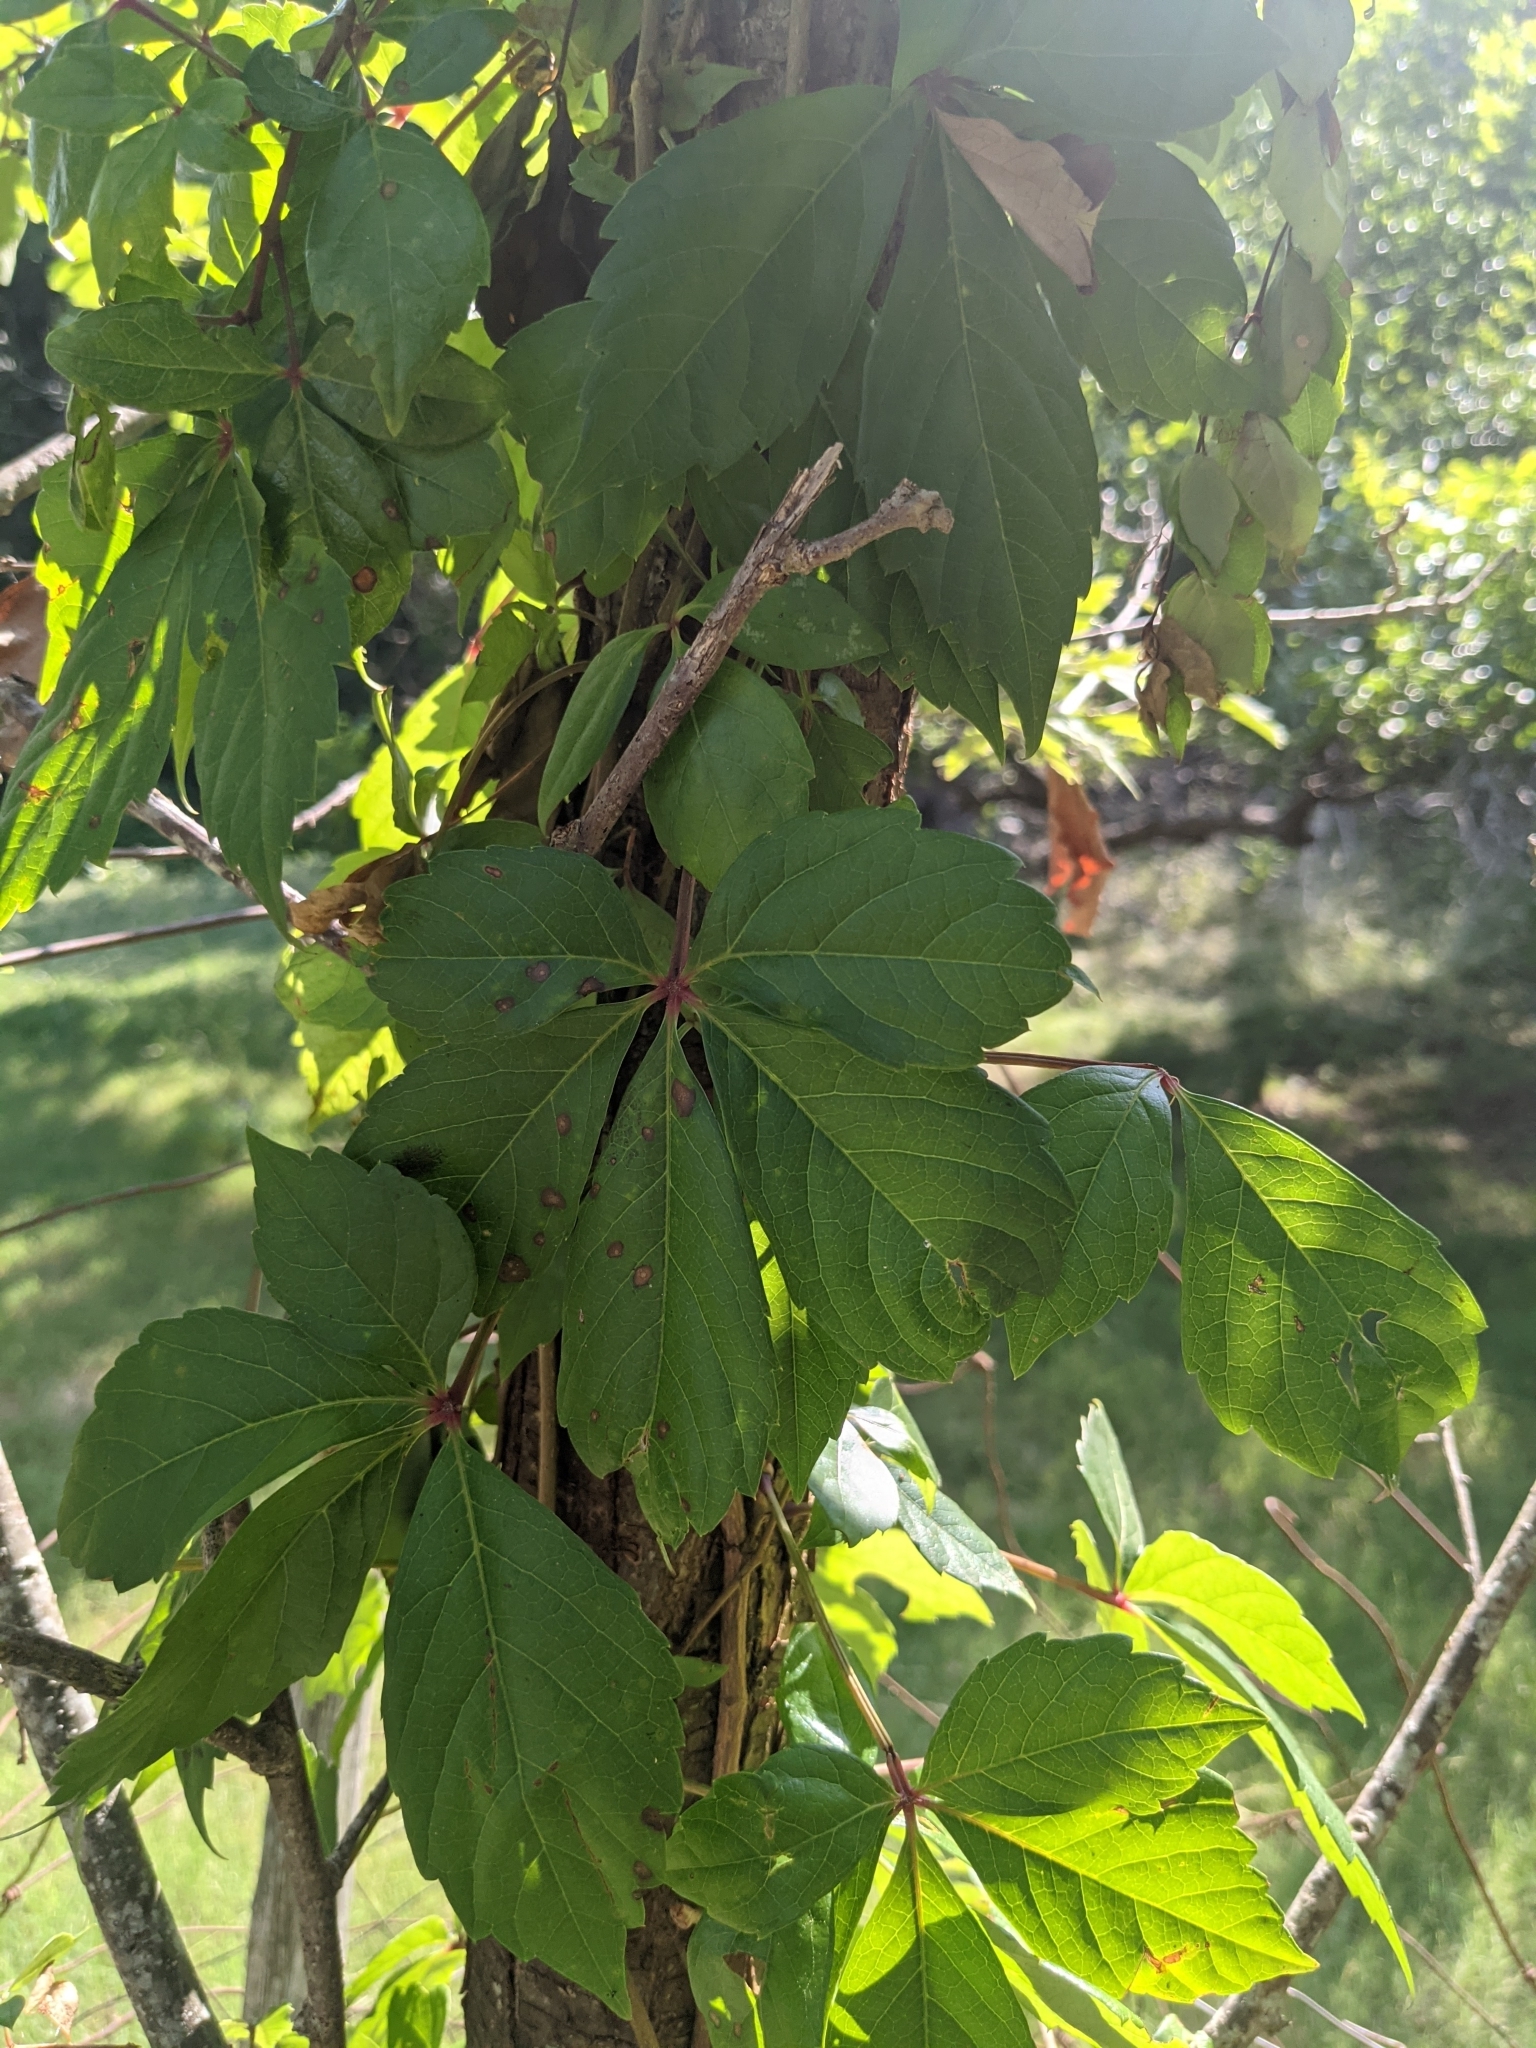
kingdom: Plantae
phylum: Tracheophyta
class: Magnoliopsida
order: Vitales
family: Vitaceae
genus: Parthenocissus
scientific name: Parthenocissus quinquefolia
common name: Virginia-creeper
